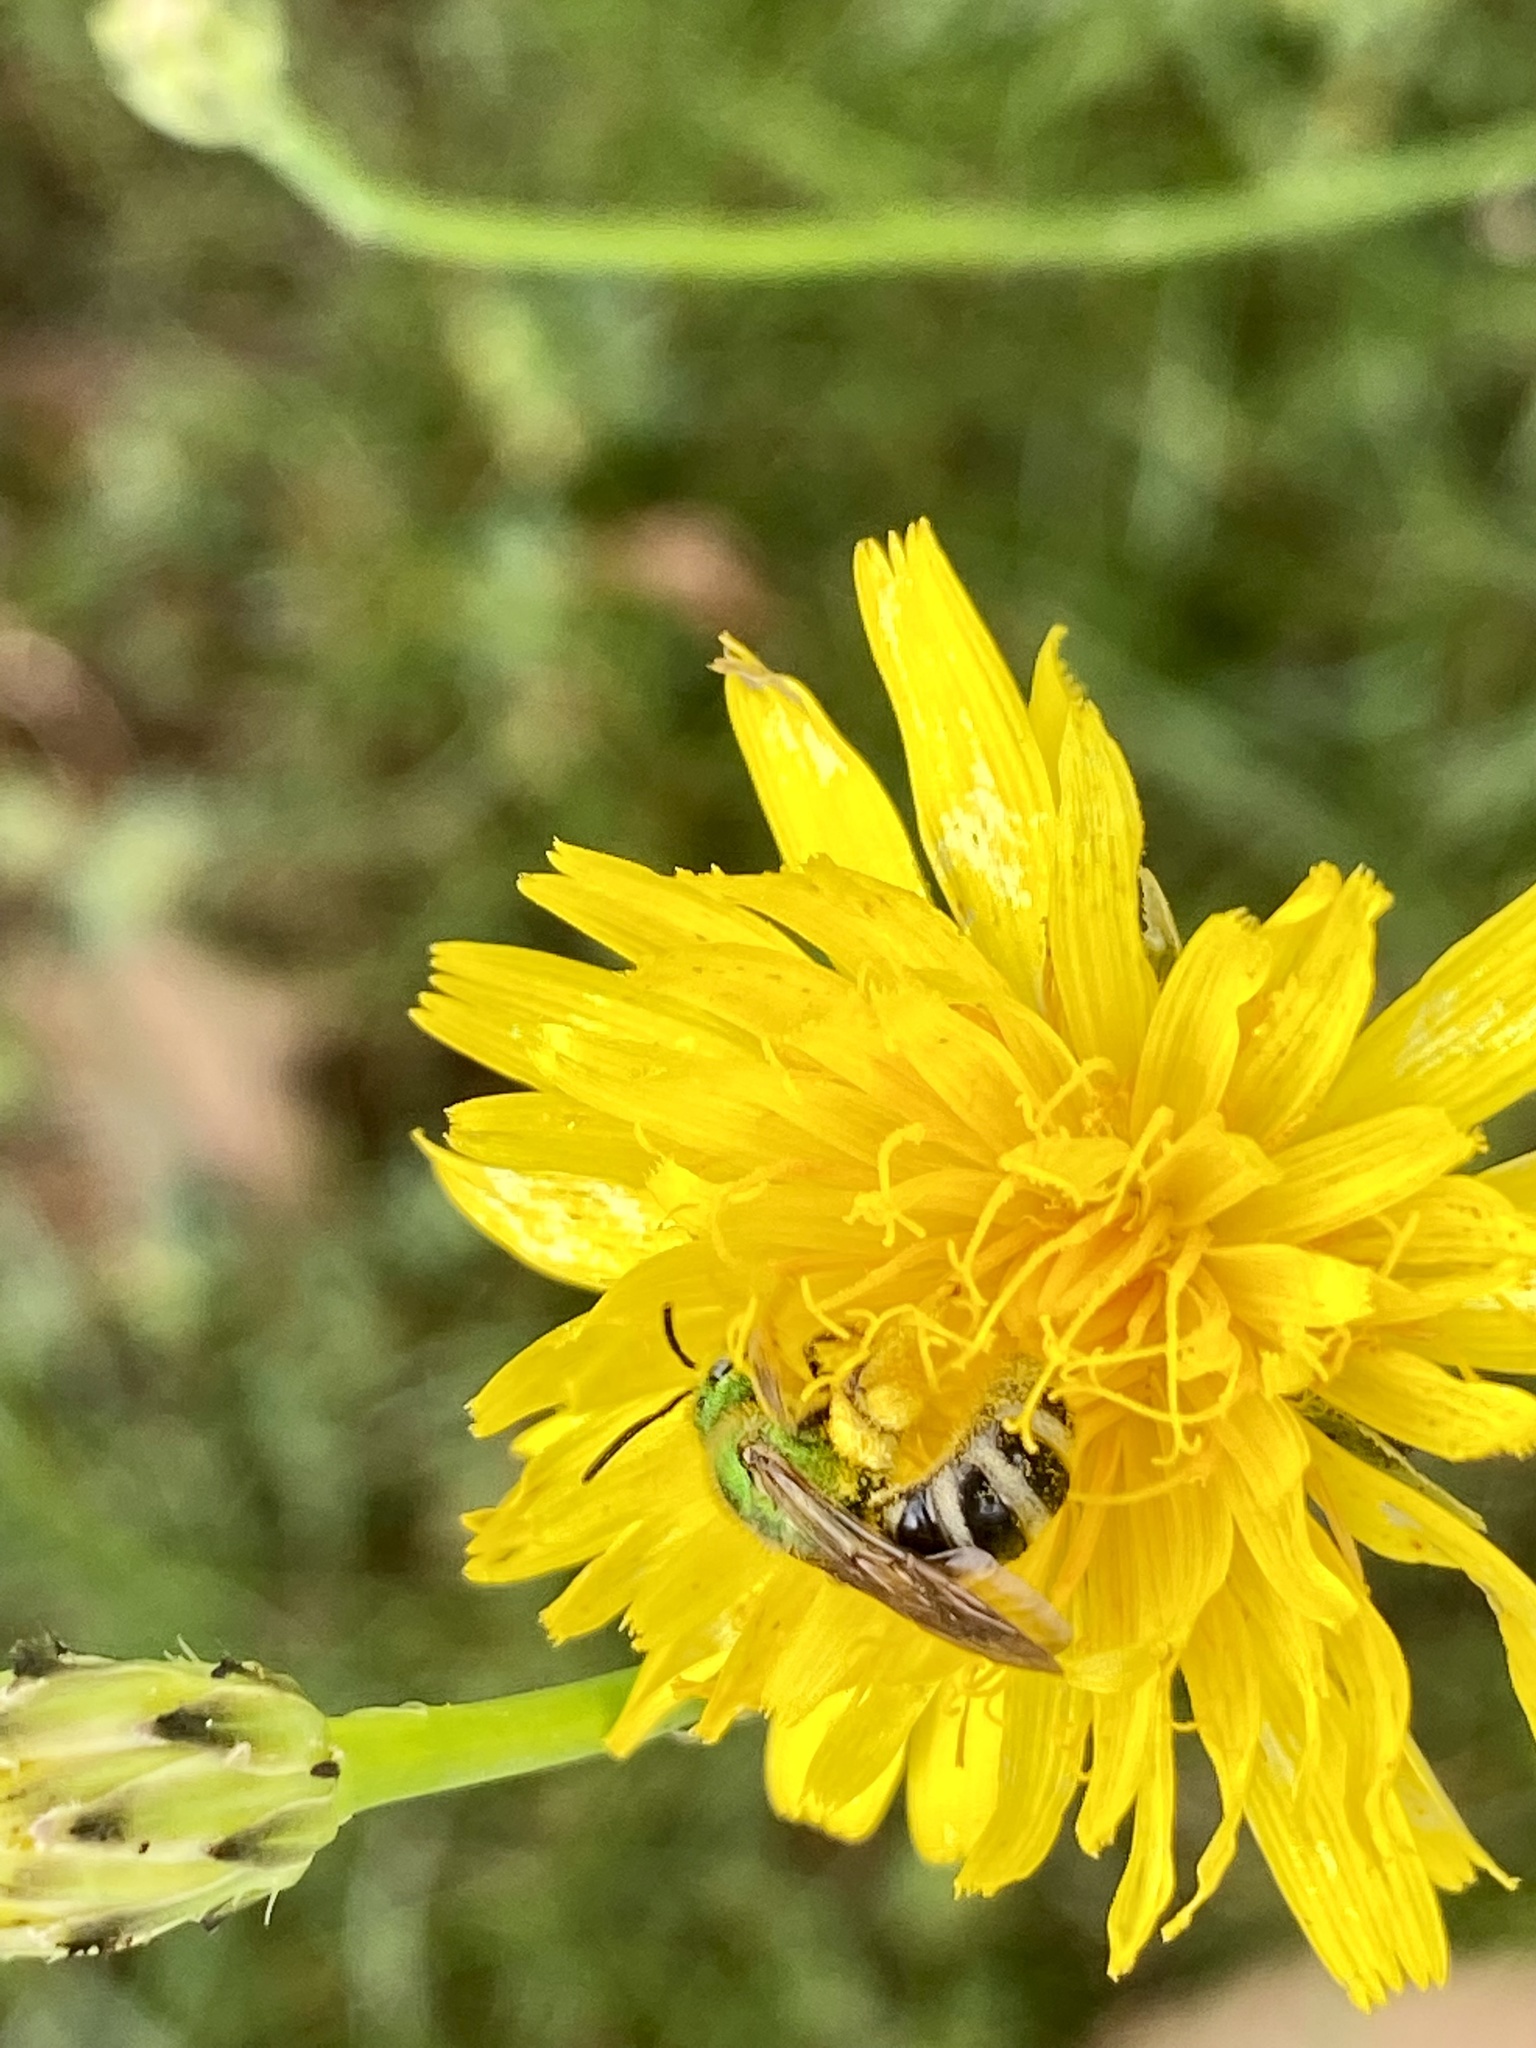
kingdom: Animalia
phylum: Arthropoda
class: Insecta
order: Hymenoptera
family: Halictidae
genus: Agapostemon
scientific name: Agapostemon virescens
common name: Bicolored striped sweat bee
